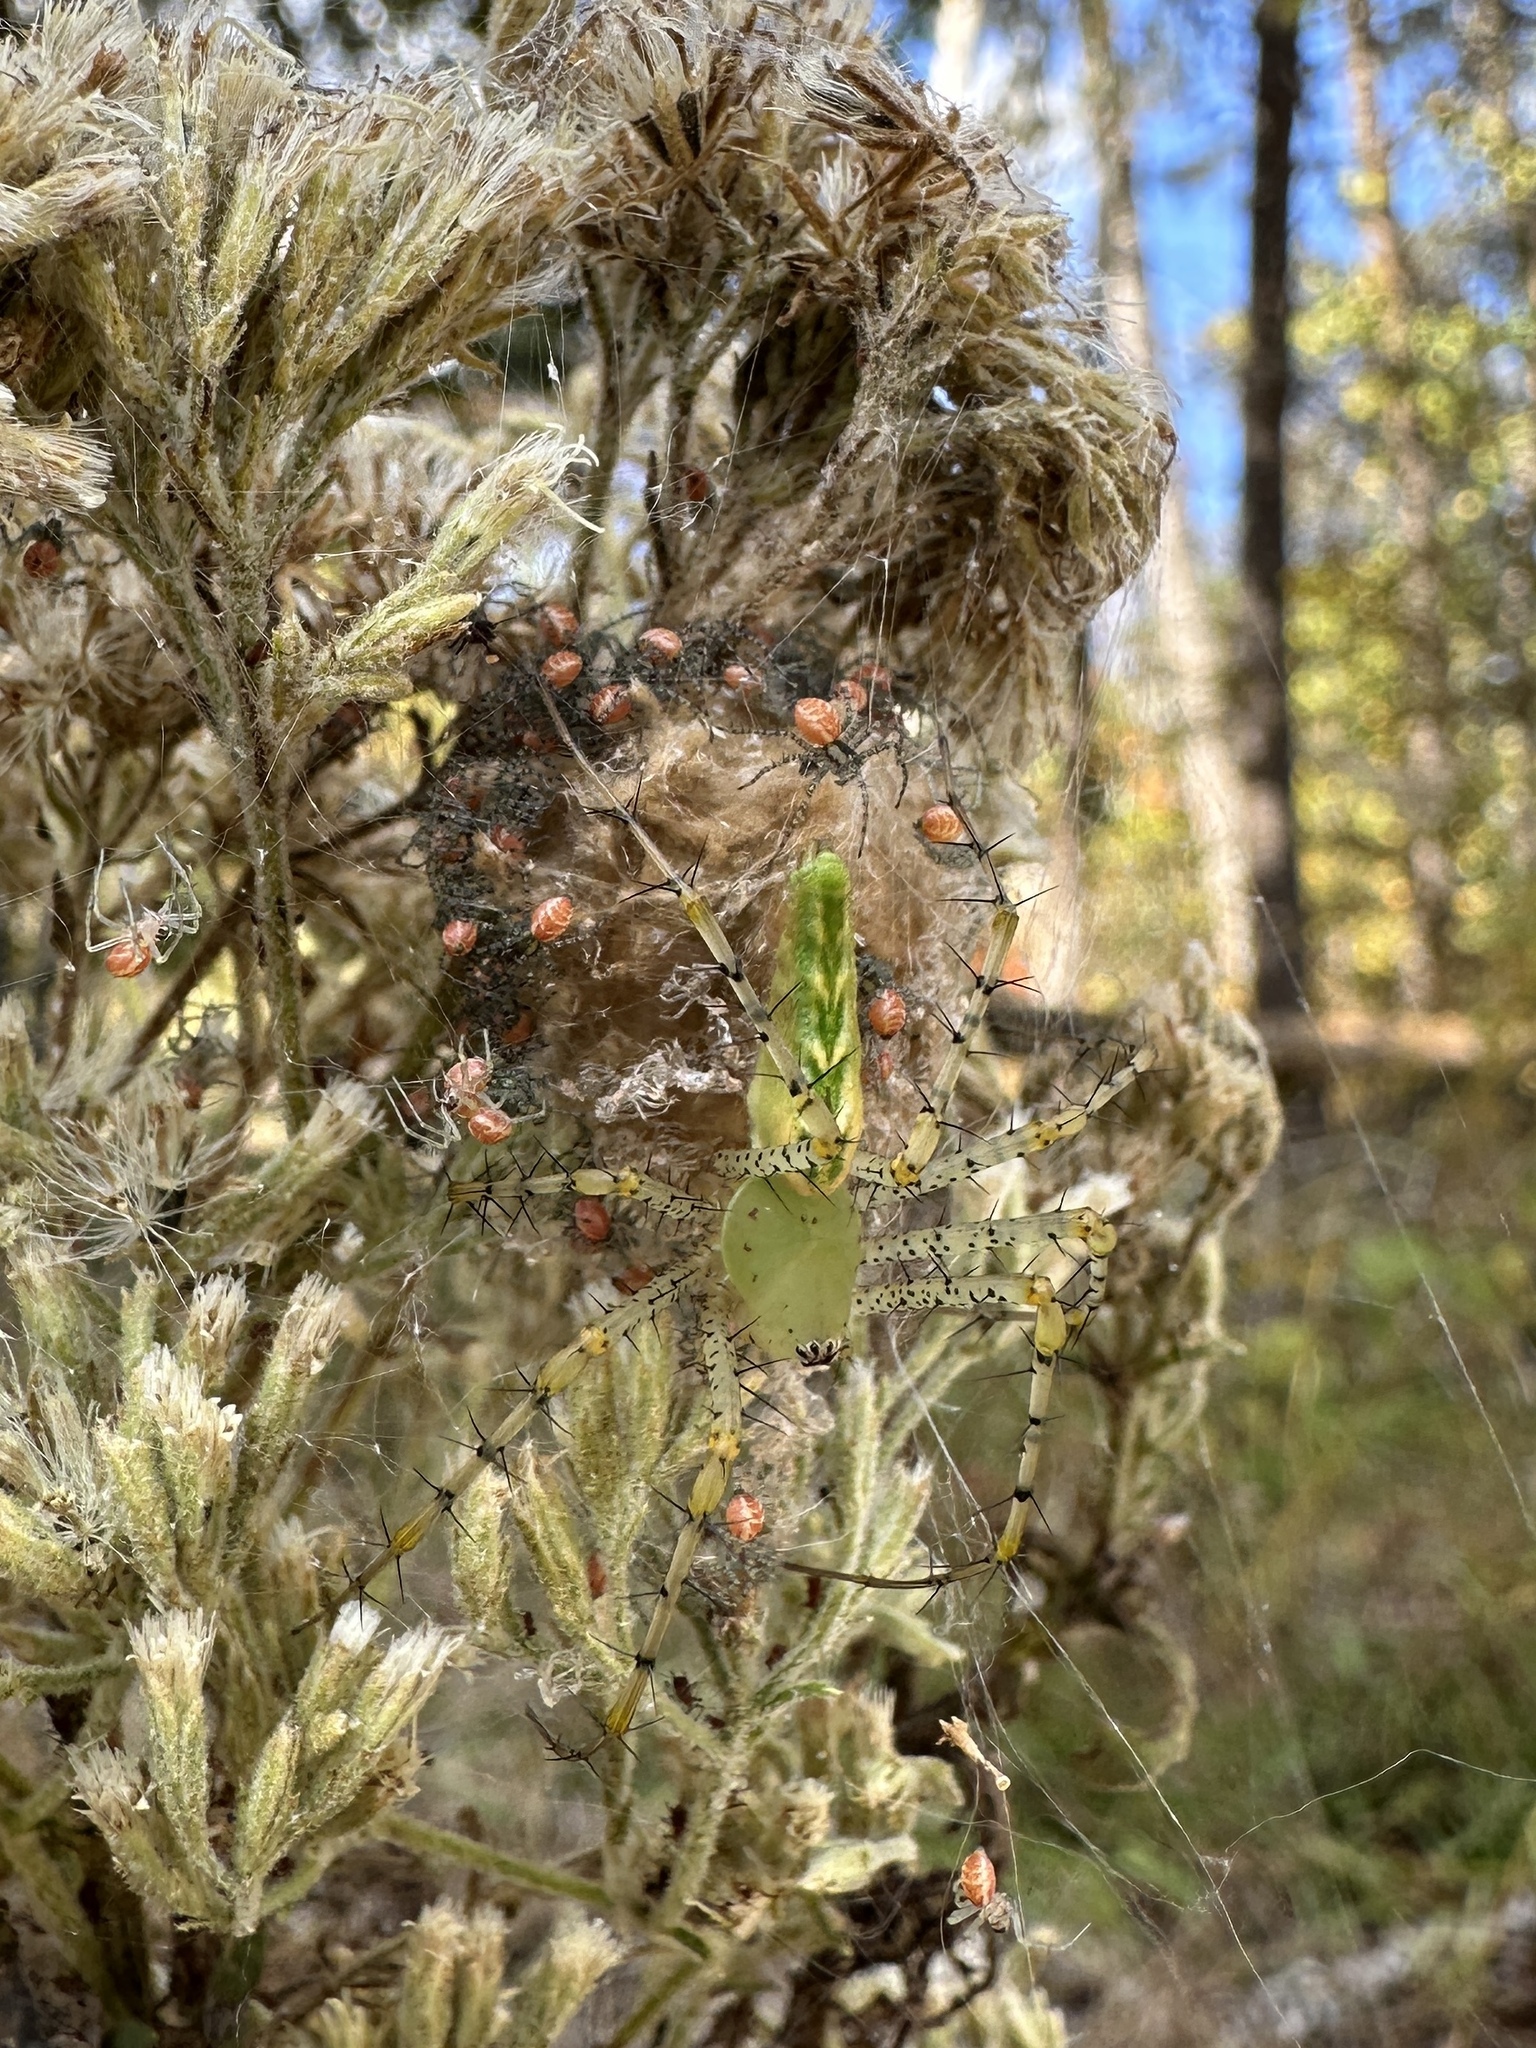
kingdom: Animalia
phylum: Arthropoda
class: Arachnida
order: Araneae
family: Oxyopidae
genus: Peucetia
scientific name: Peucetia viridans
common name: Lynx spiders
